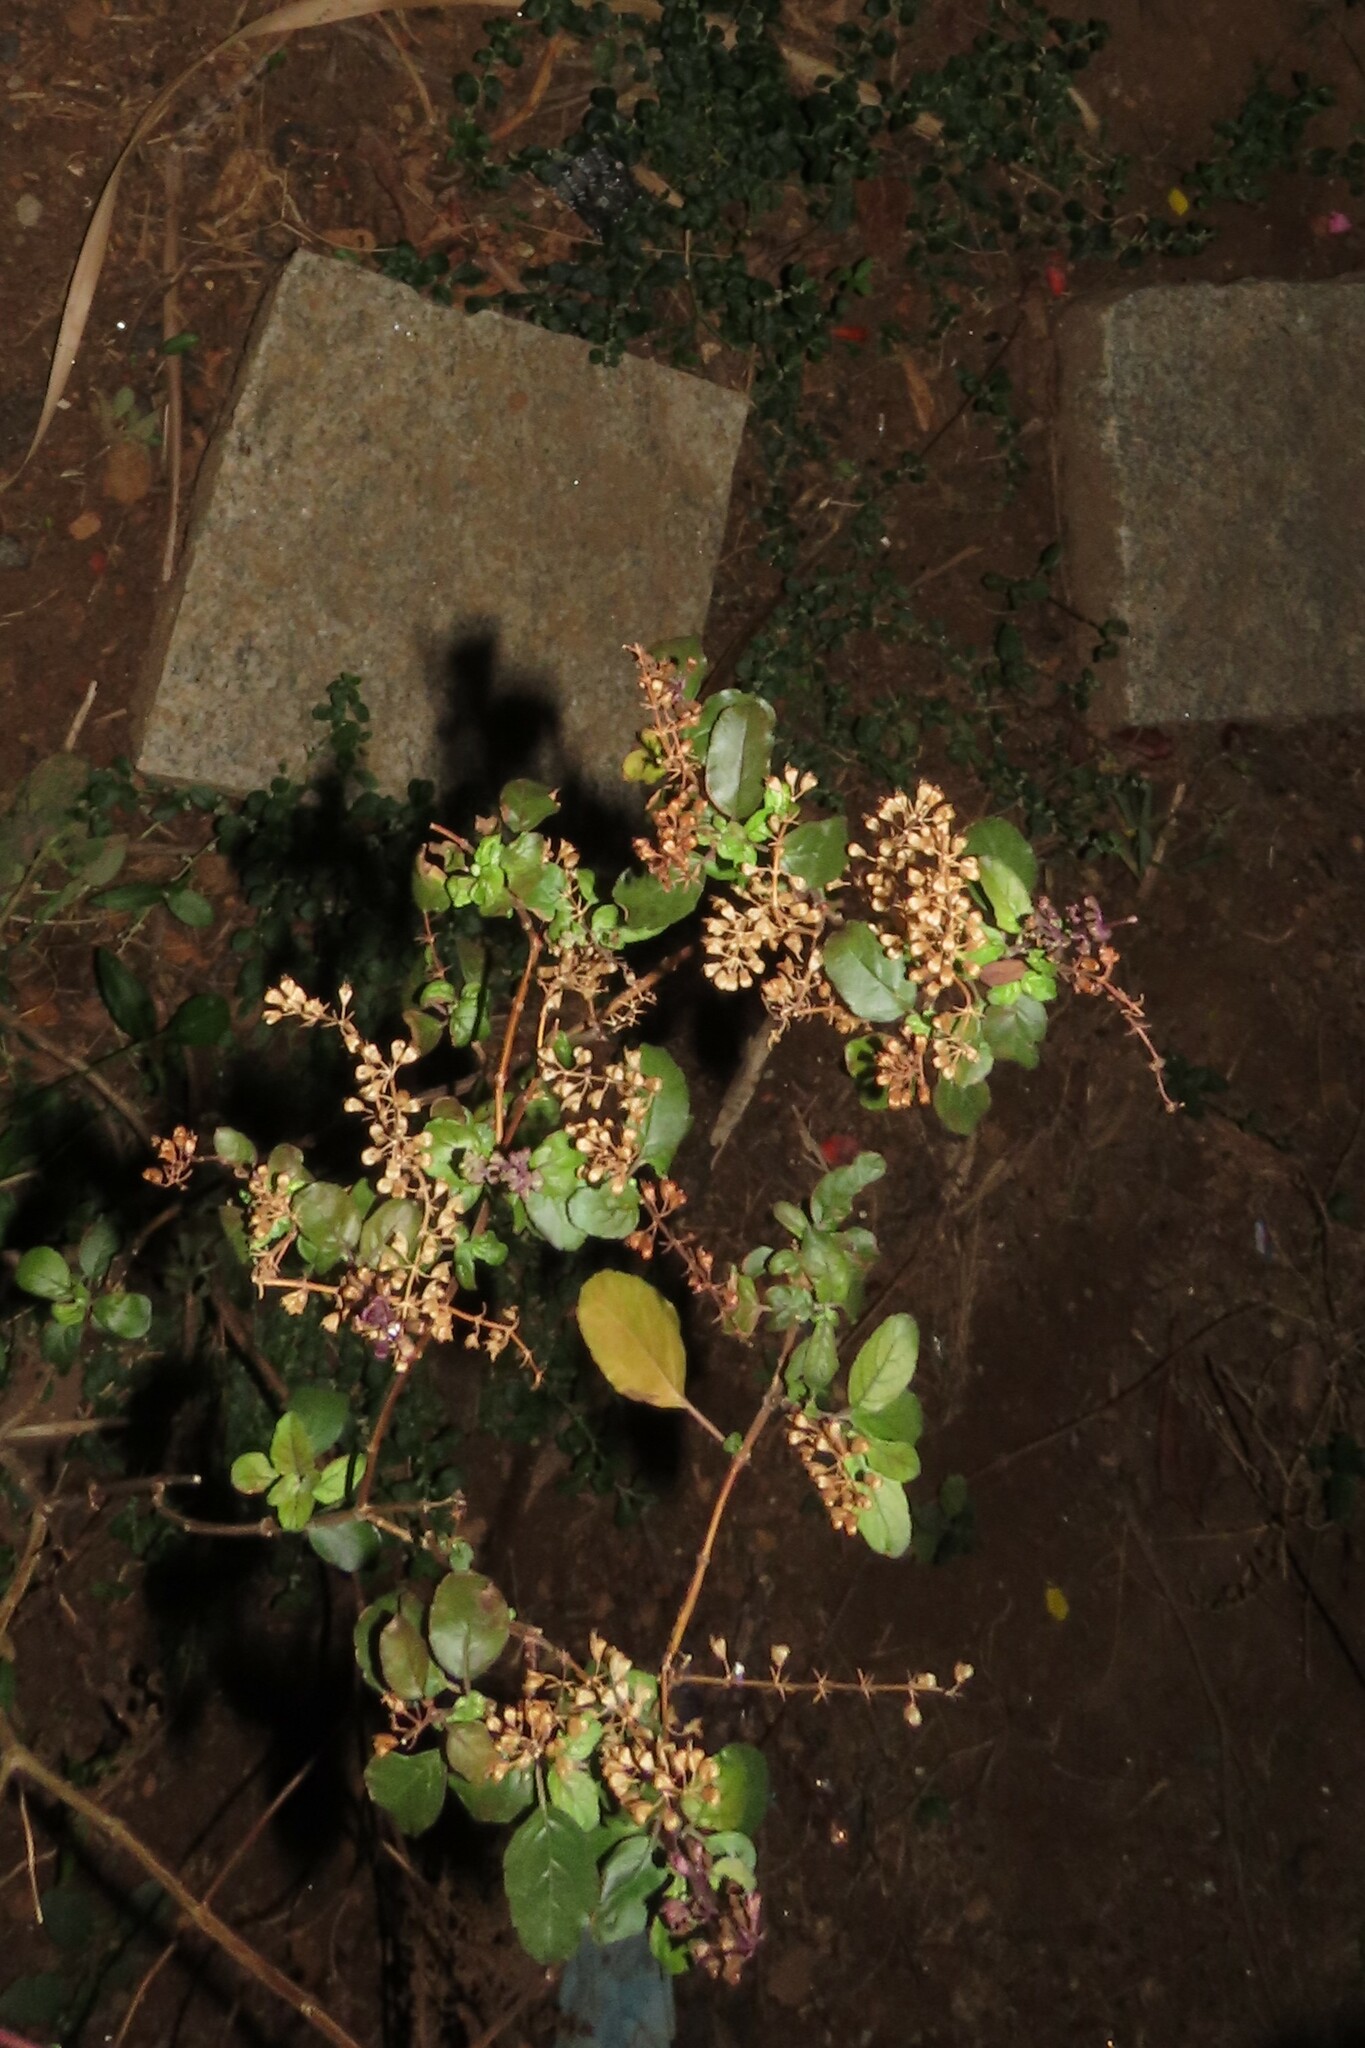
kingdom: Plantae
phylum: Tracheophyta
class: Magnoliopsida
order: Lamiales
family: Lamiaceae
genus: Ocimum
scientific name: Ocimum tenuiflorum
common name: Sacred basil
